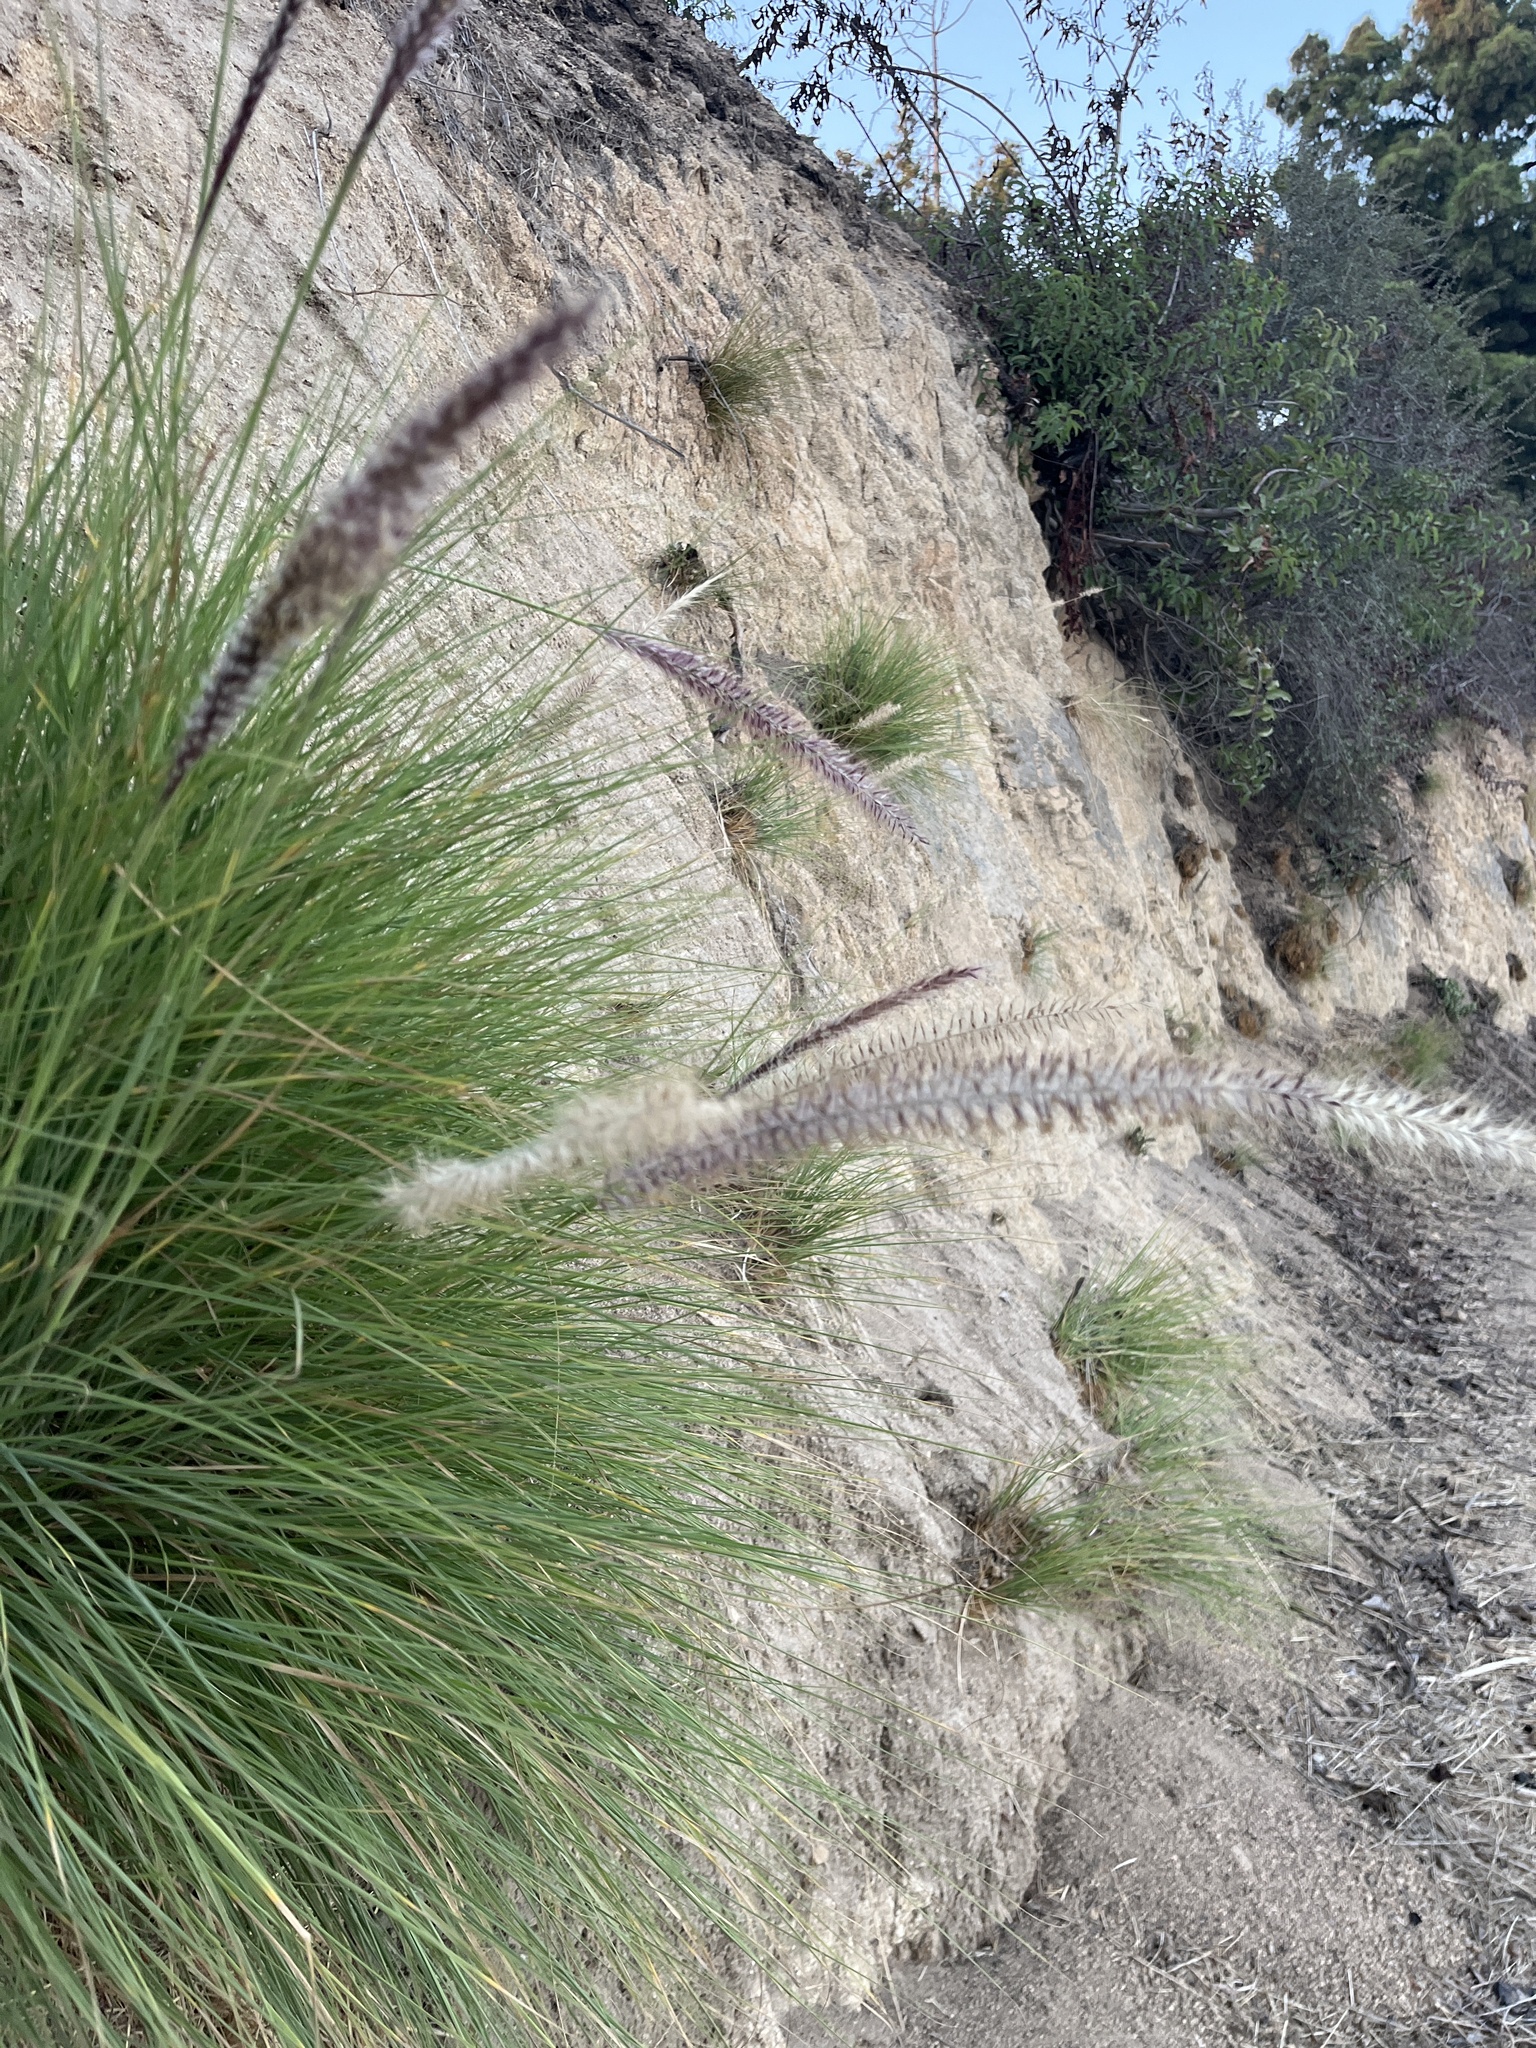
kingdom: Plantae
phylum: Tracheophyta
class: Liliopsida
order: Poales
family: Poaceae
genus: Cenchrus
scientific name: Cenchrus setaceus
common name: Crimson fountaingrass
